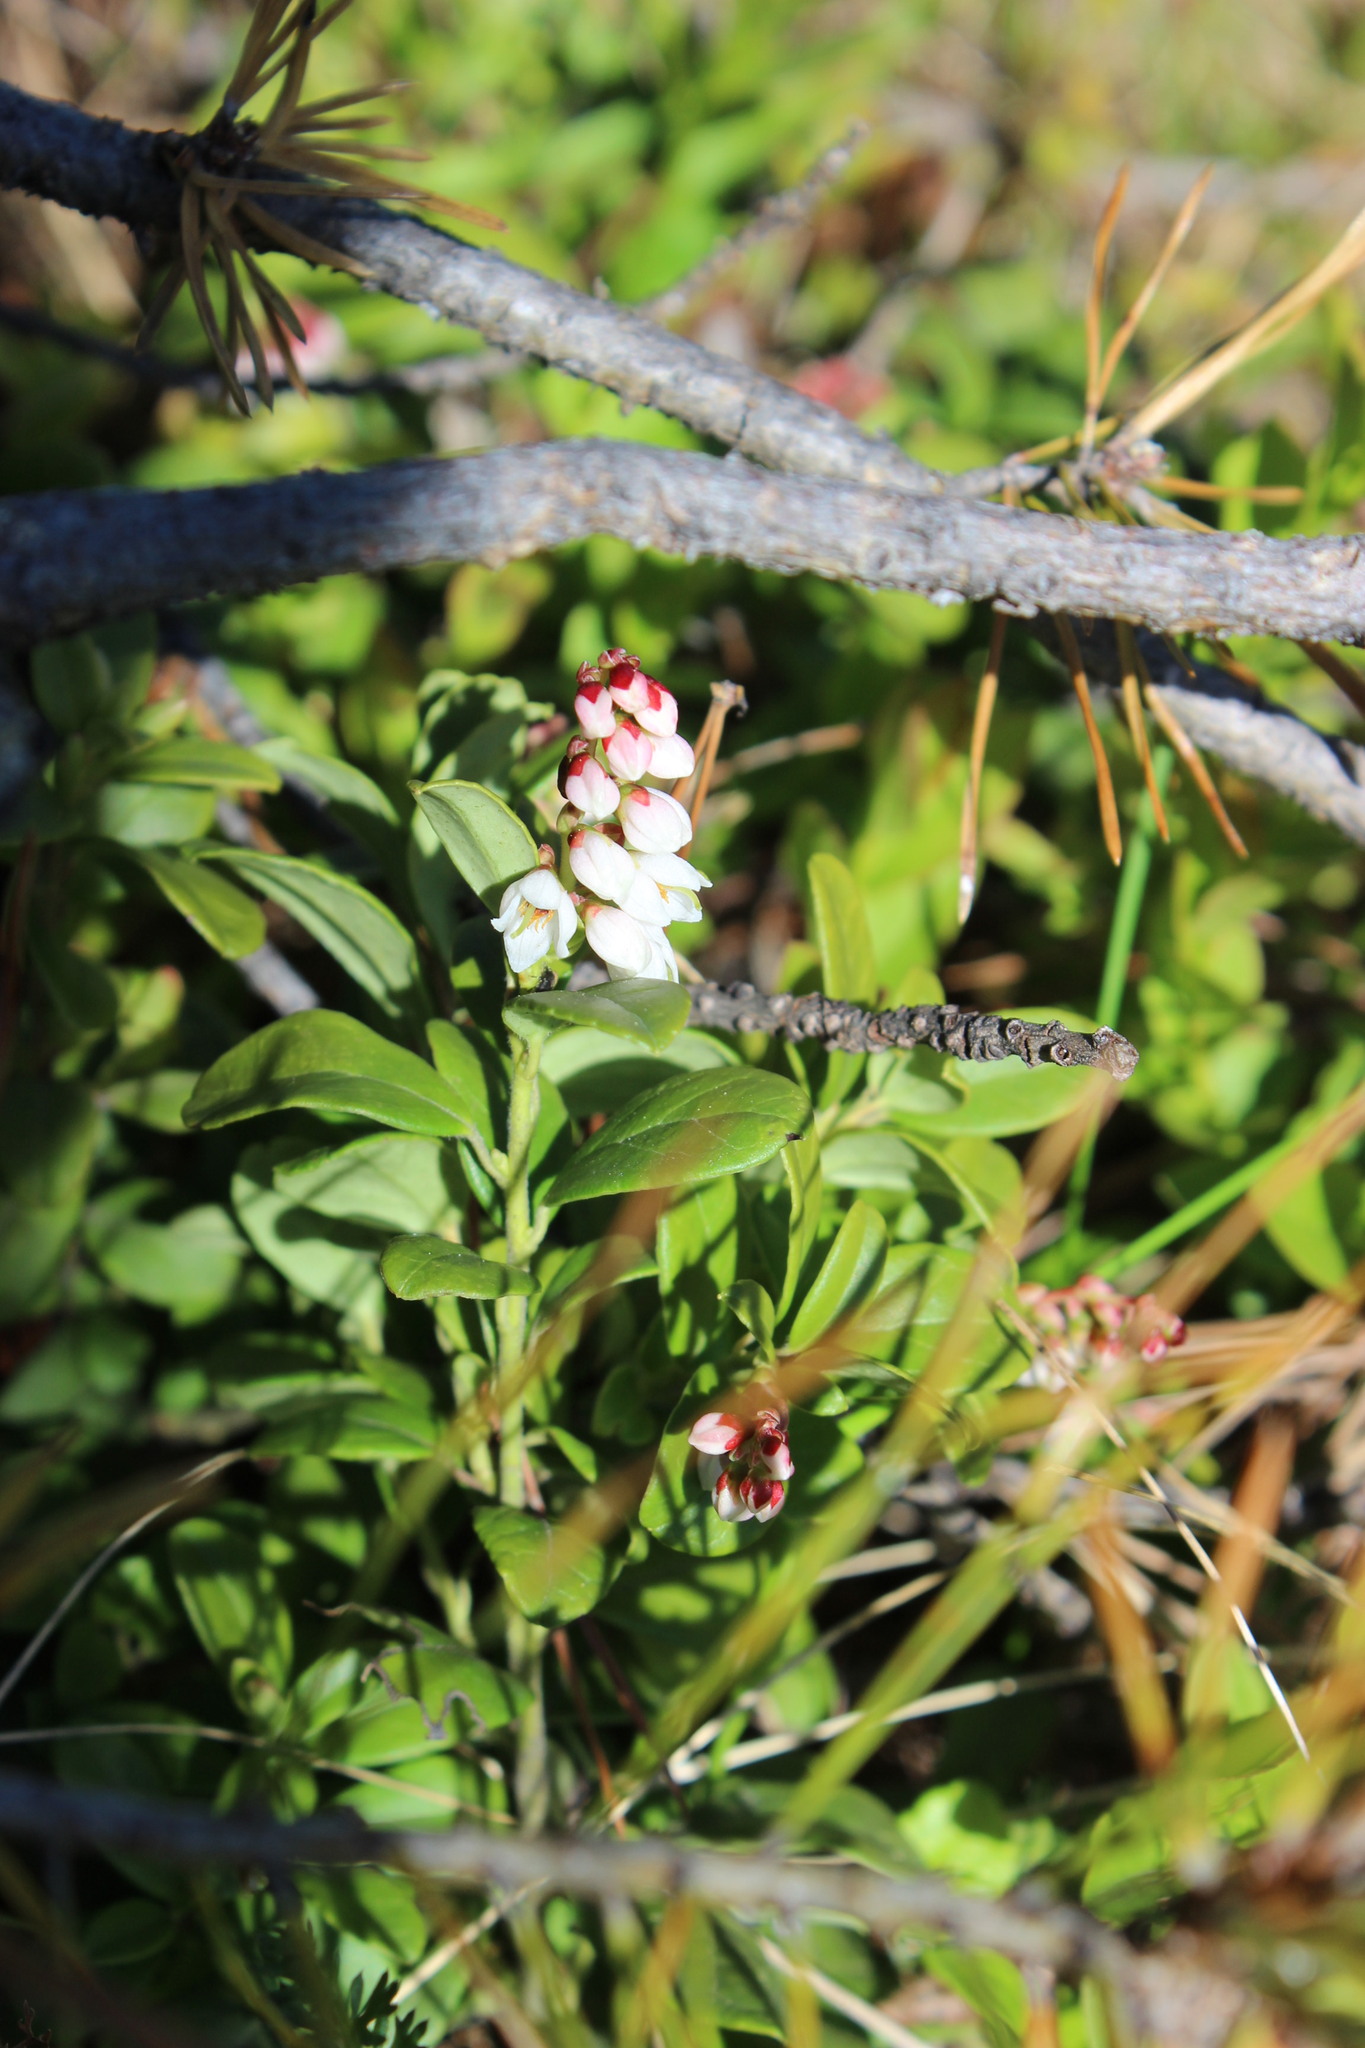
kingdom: Plantae
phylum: Tracheophyta
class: Magnoliopsida
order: Ericales
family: Ericaceae
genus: Vaccinium
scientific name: Vaccinium vitis-idaea
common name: Cowberry
